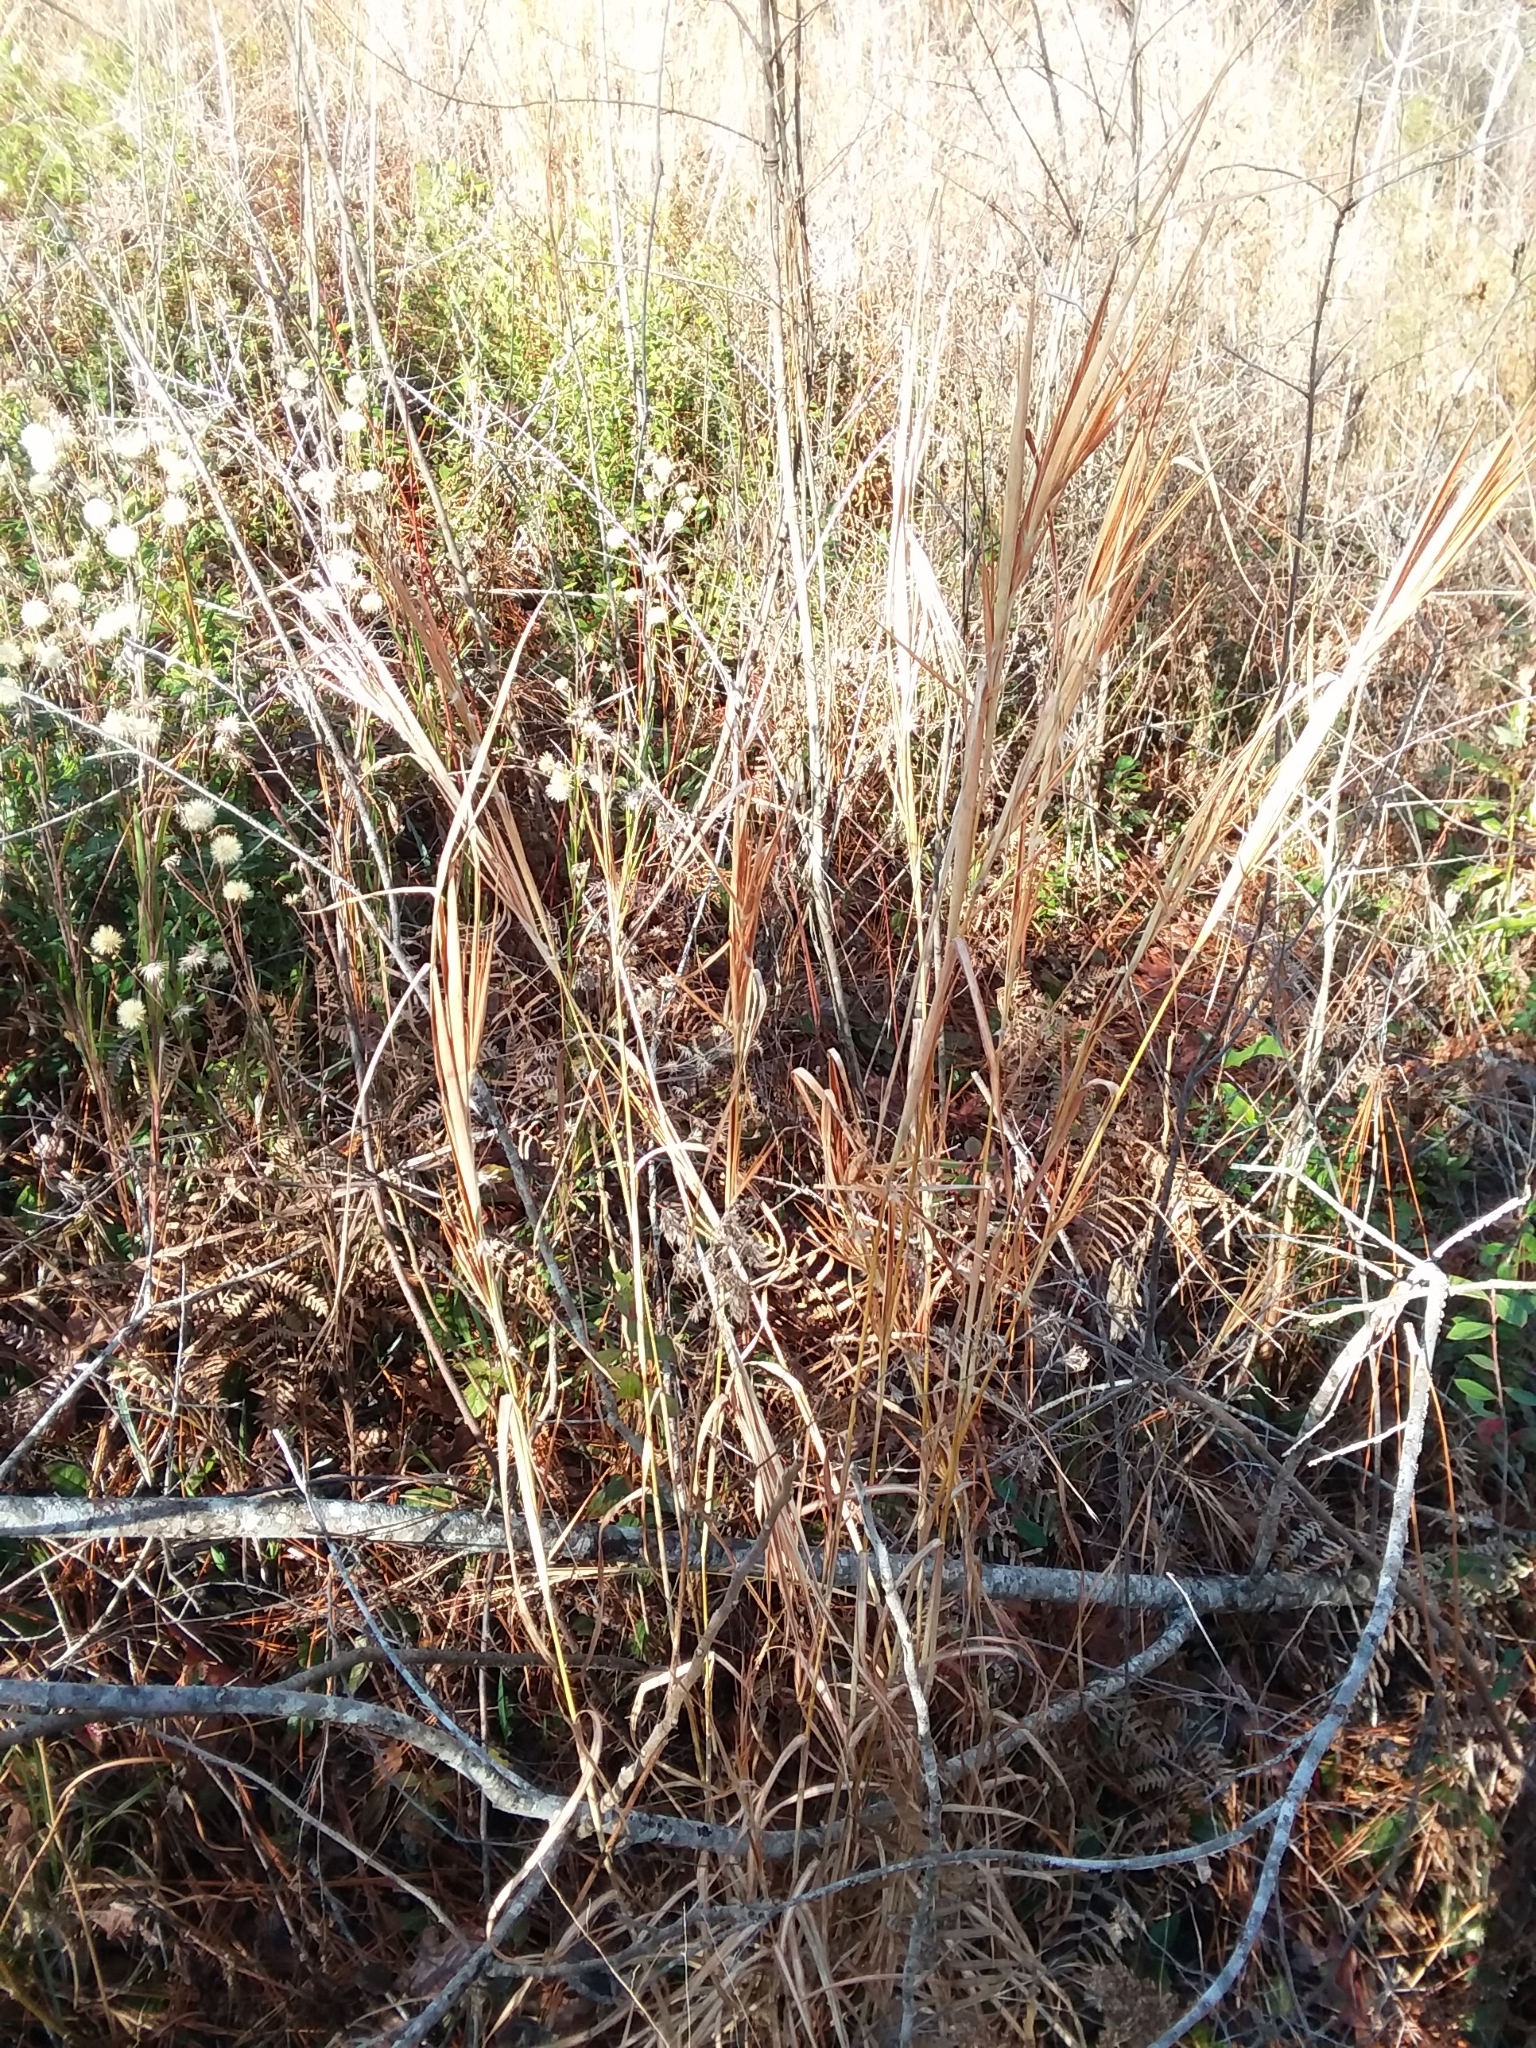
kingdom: Plantae
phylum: Tracheophyta
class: Liliopsida
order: Poales
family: Poaceae
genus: Andropogon
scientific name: Andropogon gyrans
